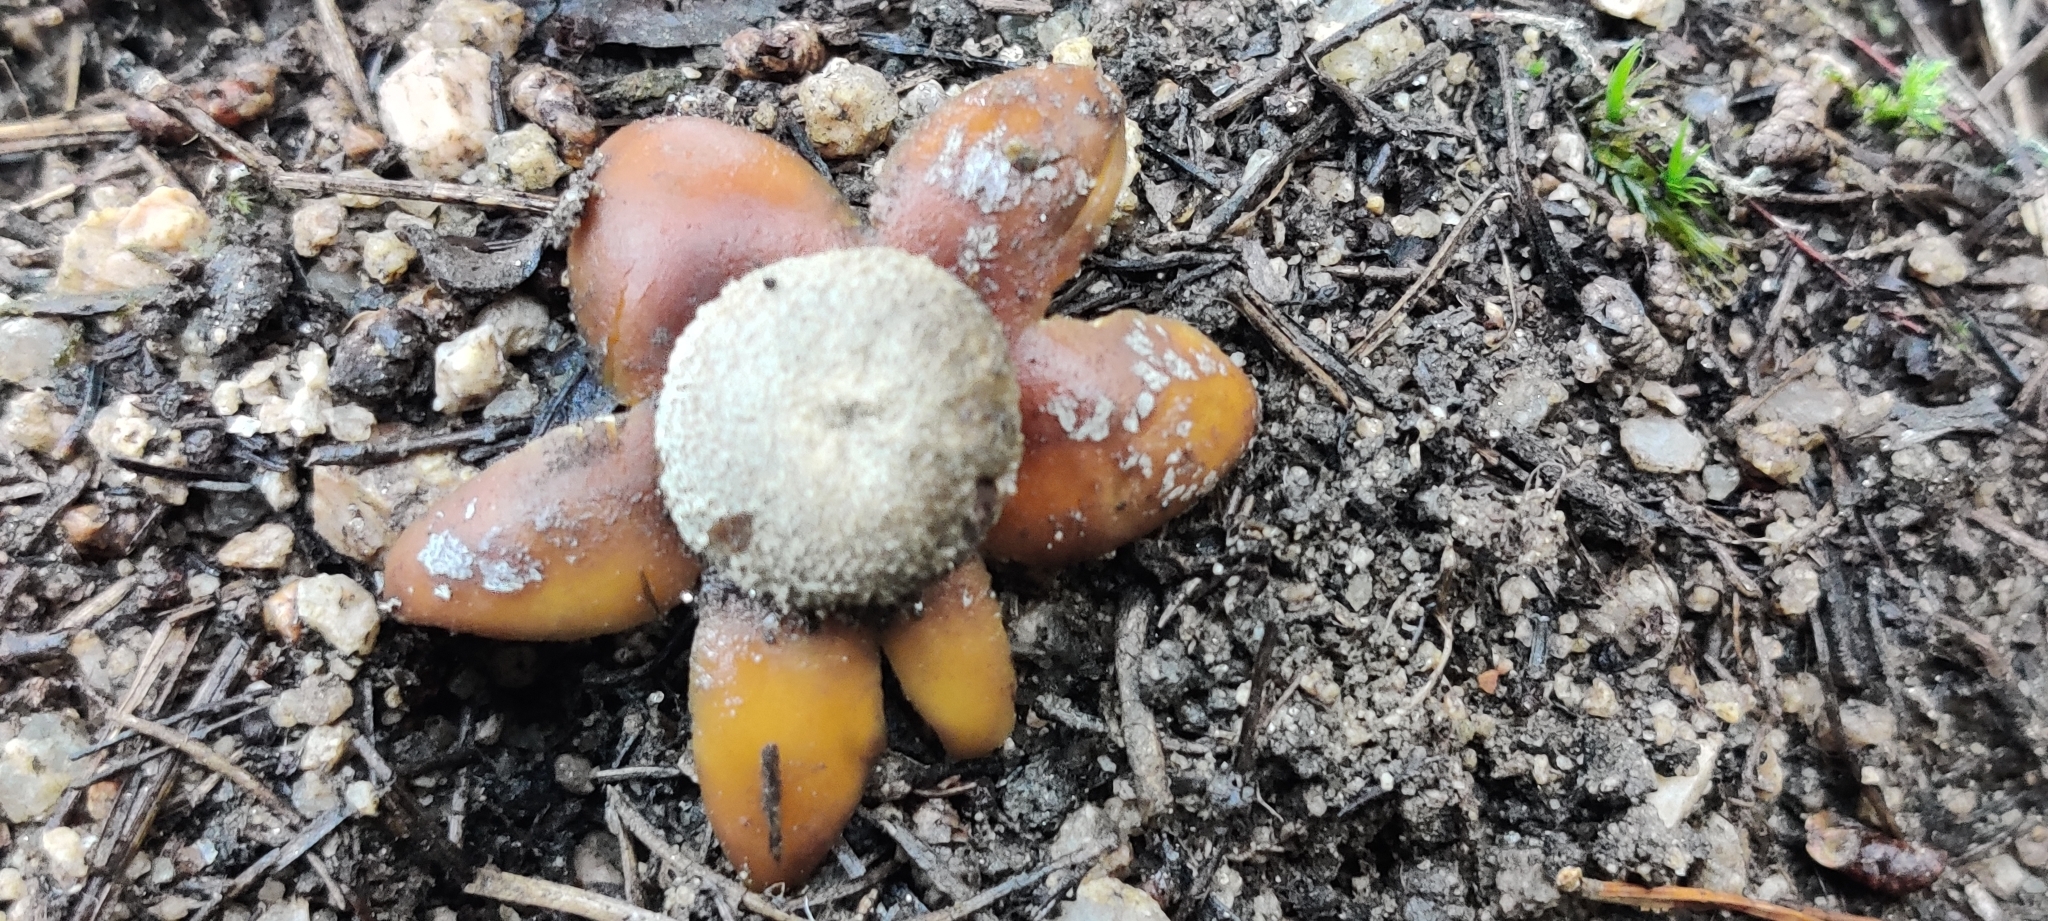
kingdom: Fungi
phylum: Basidiomycota
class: Agaricomycetes
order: Boletales
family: Diplocystidiaceae
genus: Astraeus
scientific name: Astraeus hygrometricus
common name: Barometer earthstar
